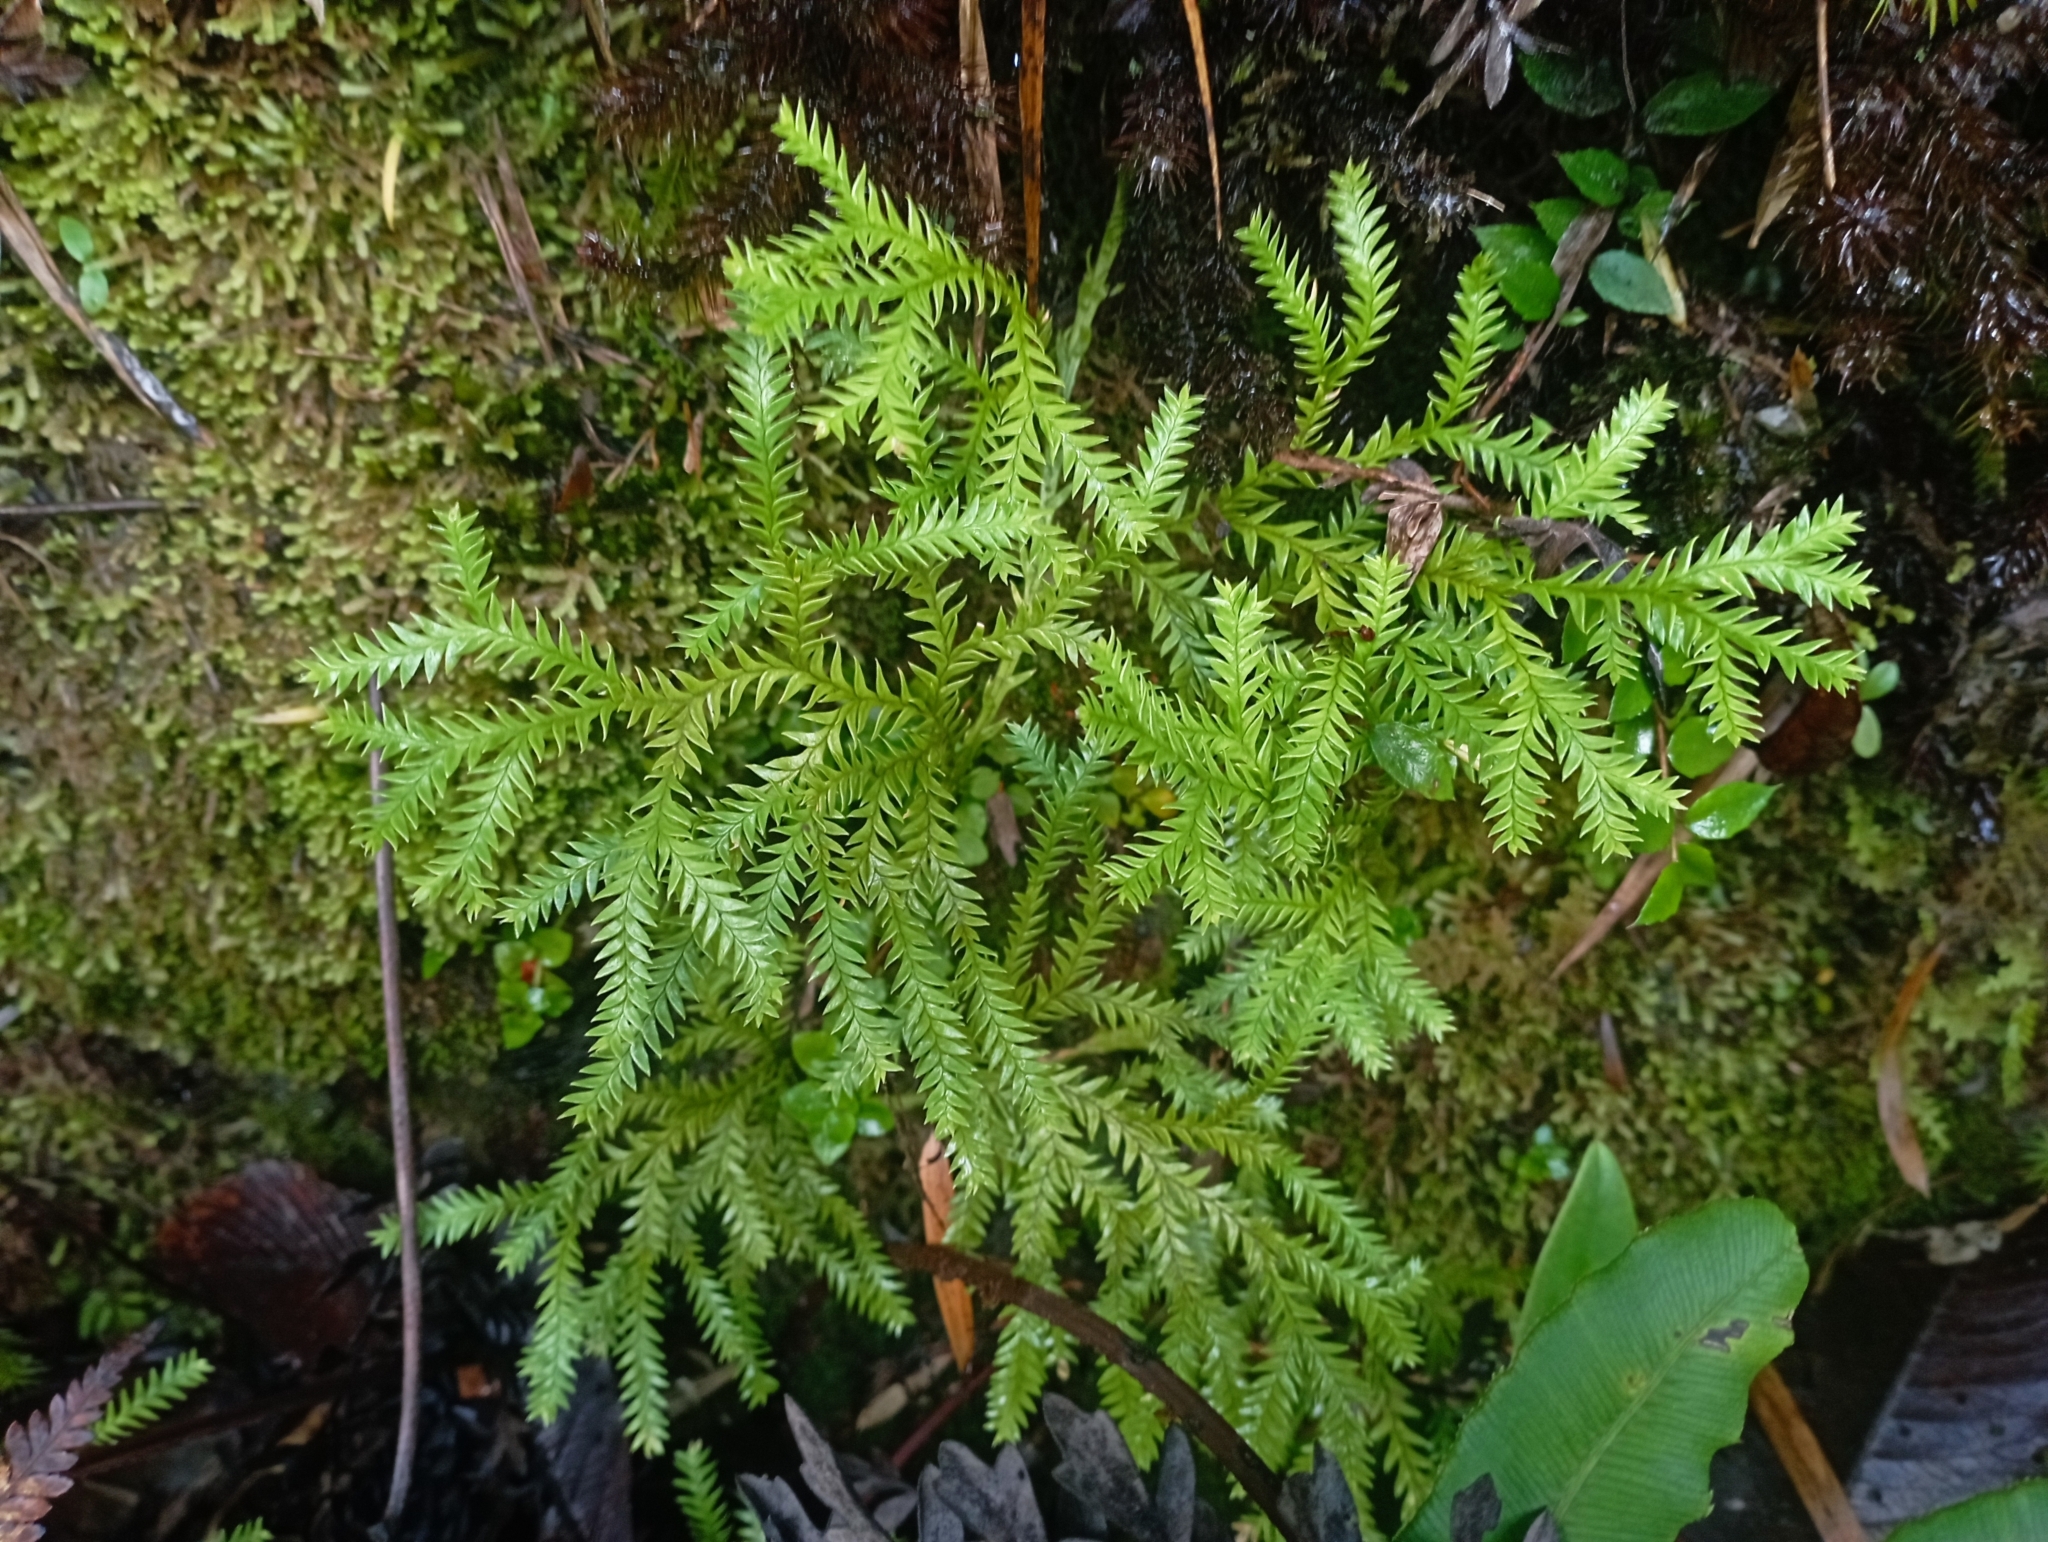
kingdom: Plantae
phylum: Tracheophyta
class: Lycopodiopsida
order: Lycopodiales
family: Lycopodiaceae
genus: Diphasium
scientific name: Diphasium gayanum
